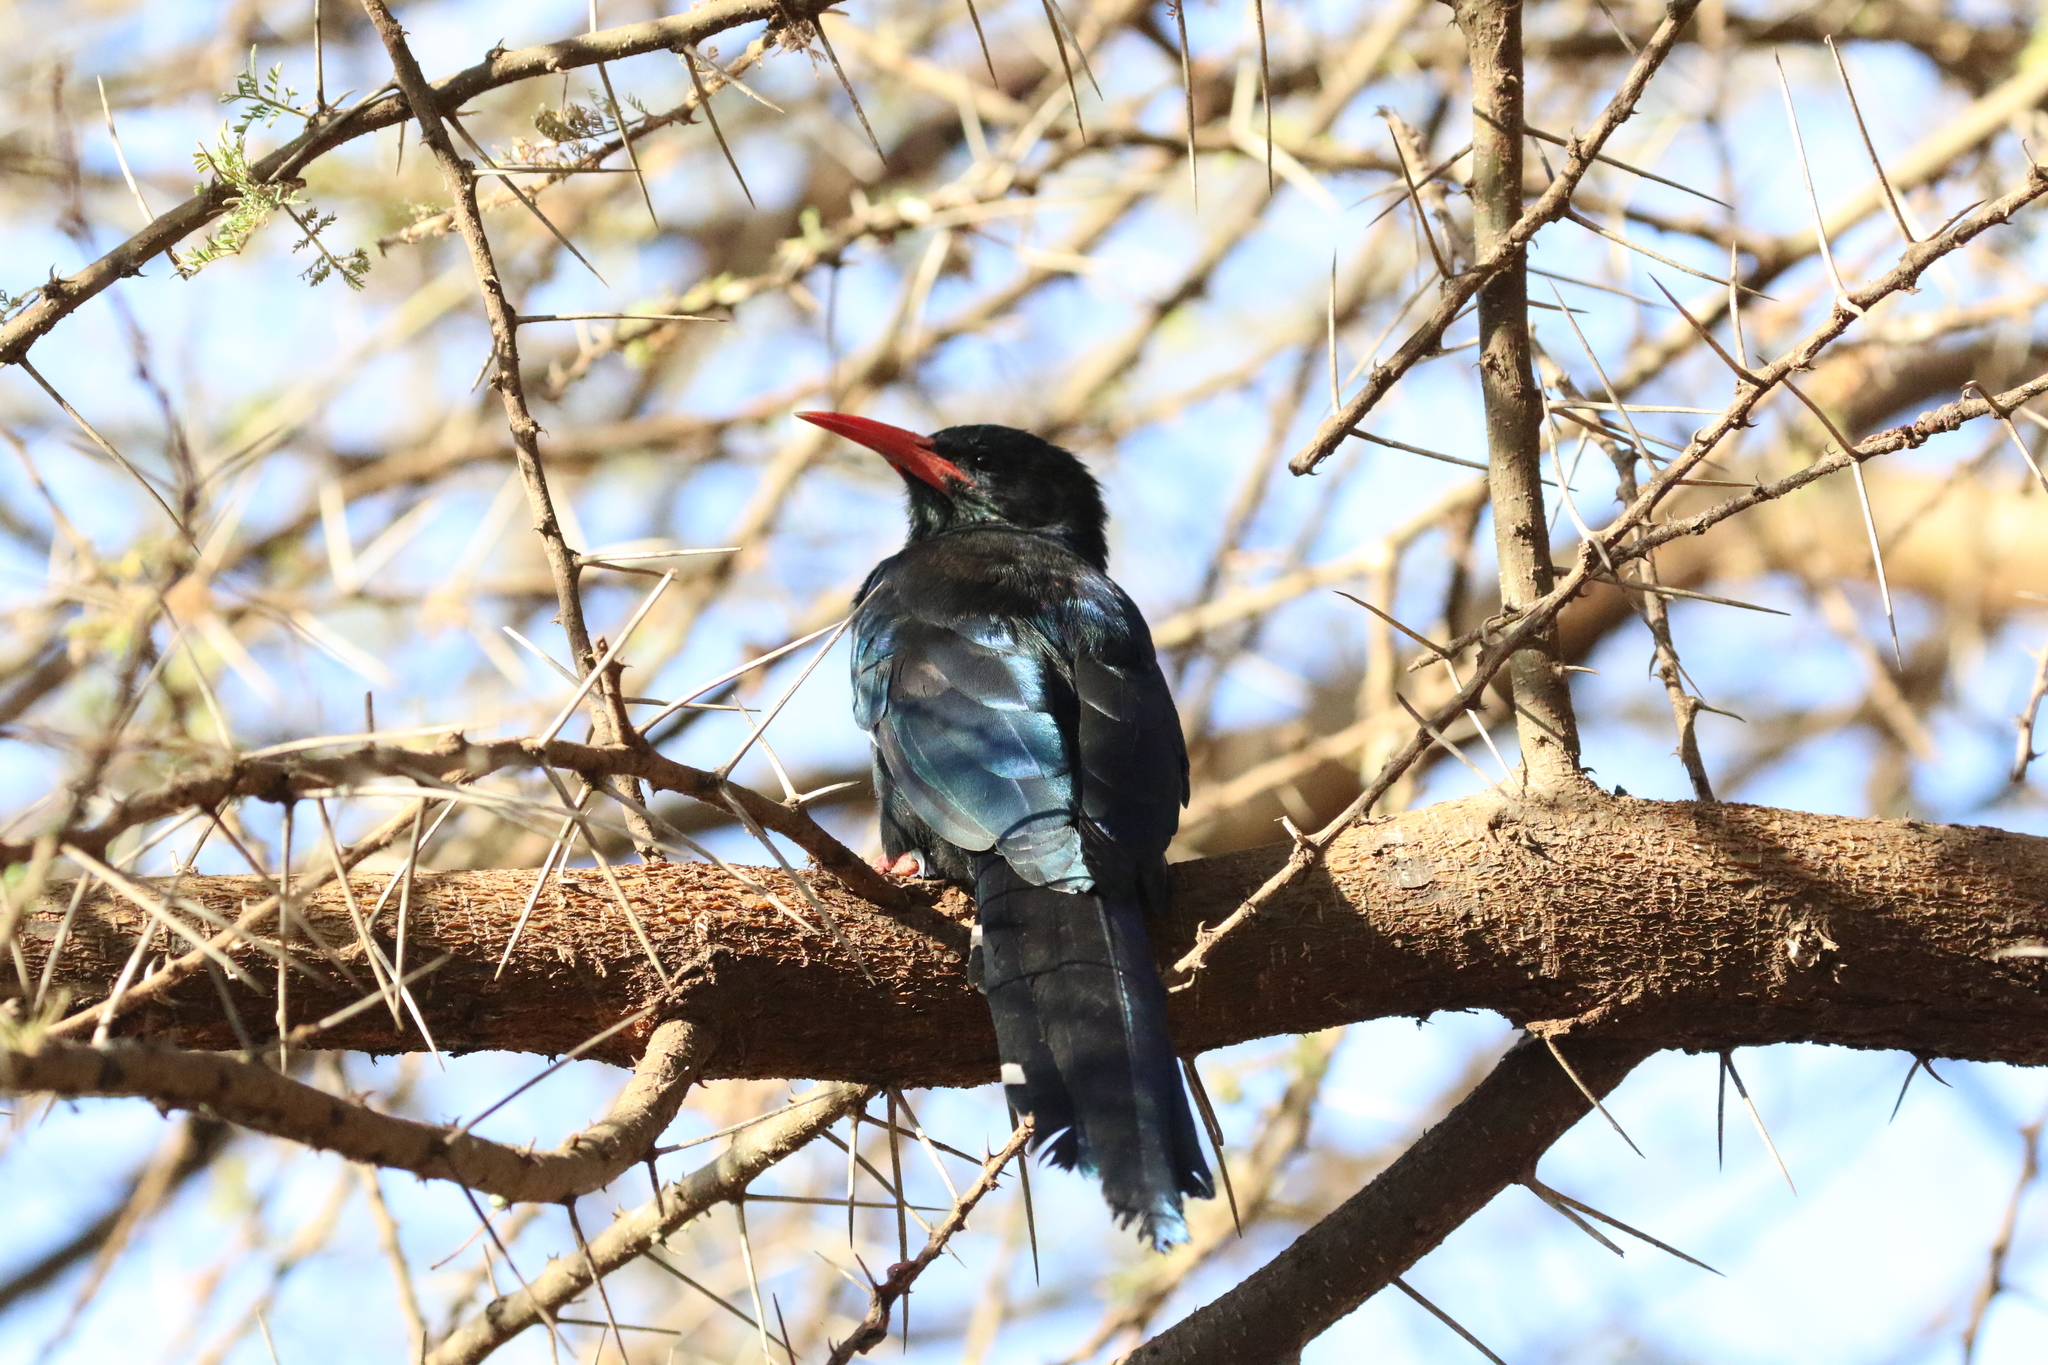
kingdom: Animalia
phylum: Chordata
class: Aves
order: Bucerotiformes
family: Phoeniculidae
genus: Phoeniculus
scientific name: Phoeniculus purpureus
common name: Green woodhoopoe
